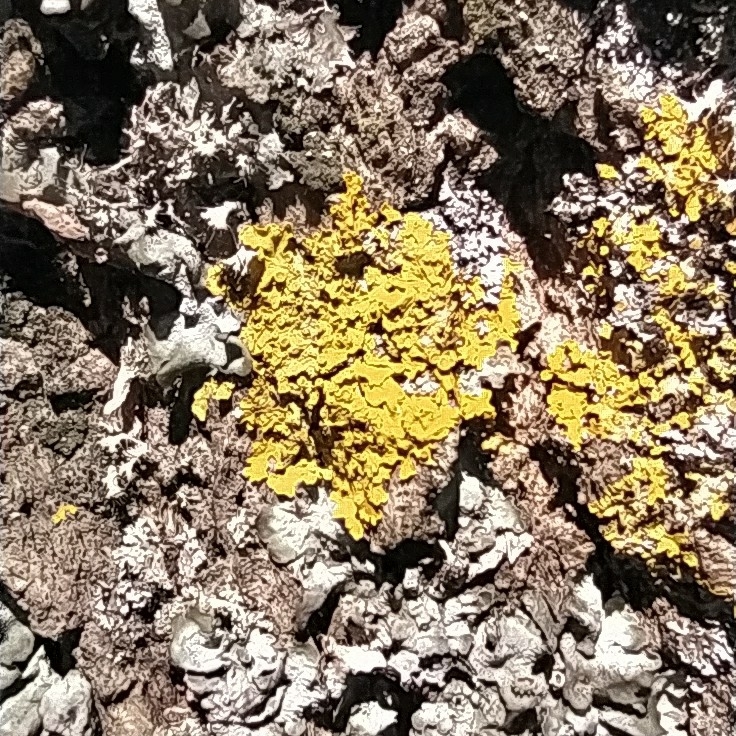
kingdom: Fungi
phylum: Ascomycota
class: Lecanoromycetes
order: Teloschistales
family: Teloschistaceae
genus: Xanthoria
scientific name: Xanthoria parietina
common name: Common orange lichen
